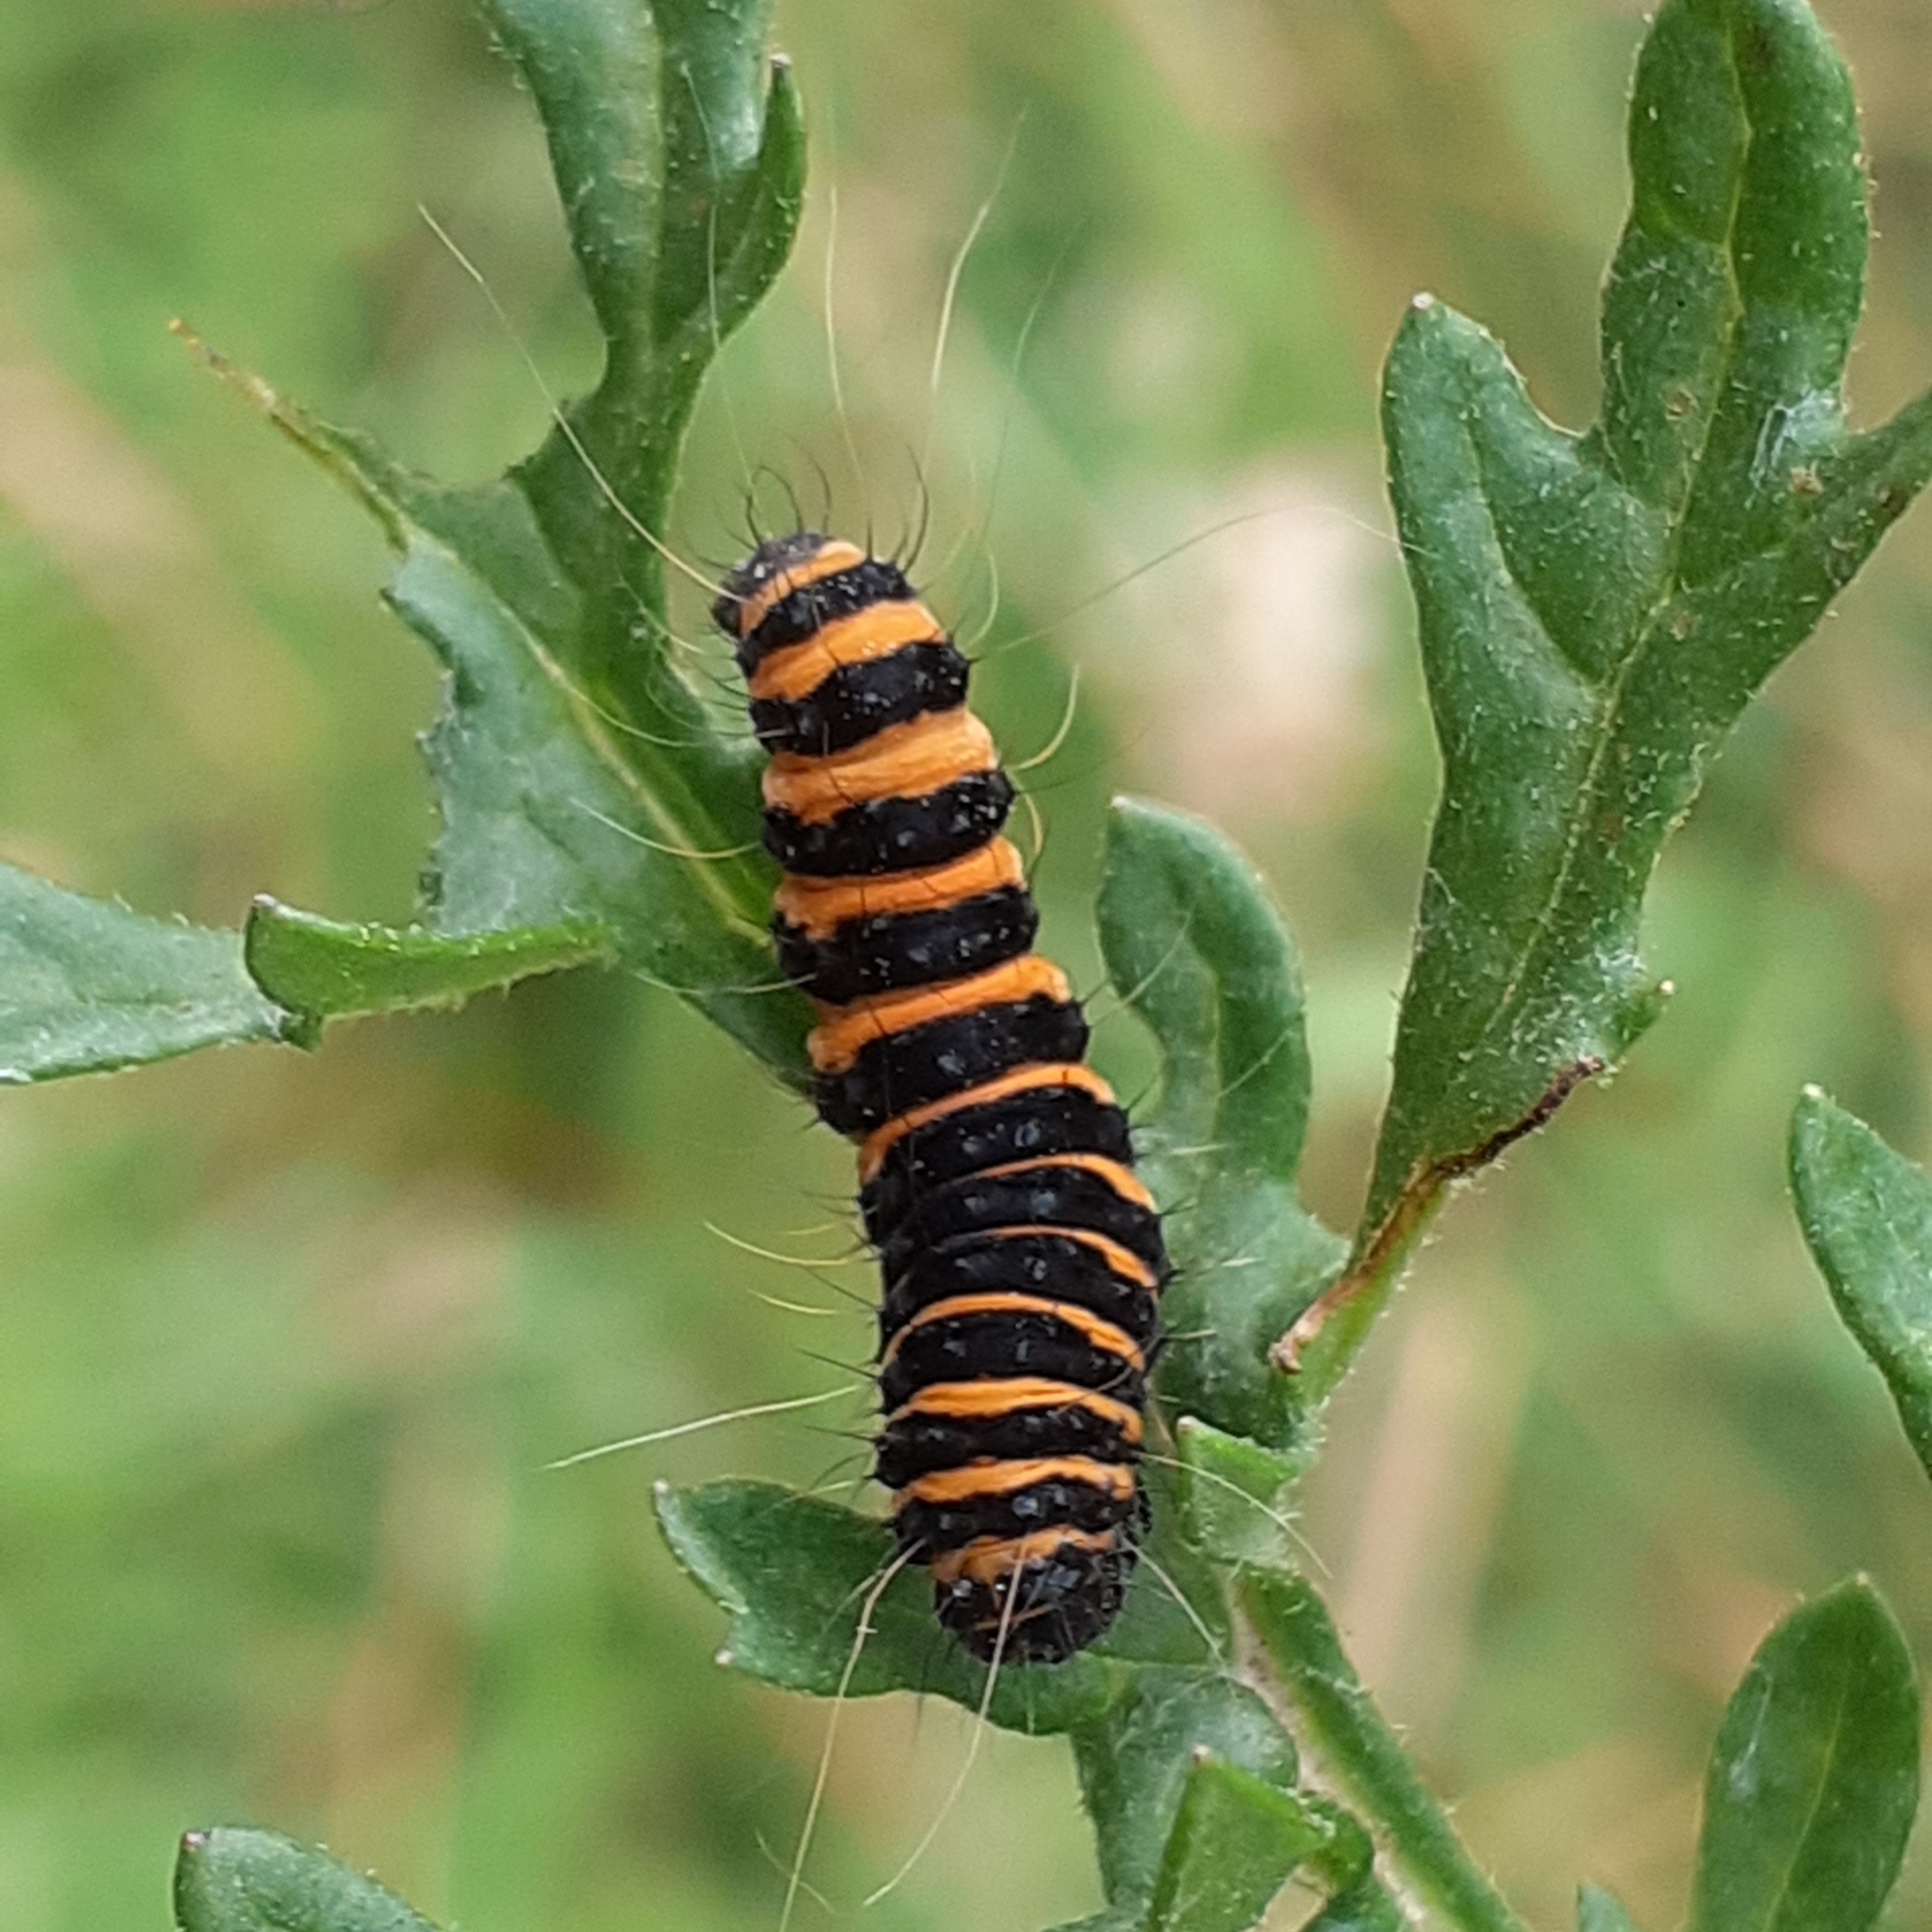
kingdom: Animalia
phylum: Arthropoda
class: Insecta
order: Lepidoptera
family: Erebidae
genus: Tyria
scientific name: Tyria jacobaeae
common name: Cinnabar
